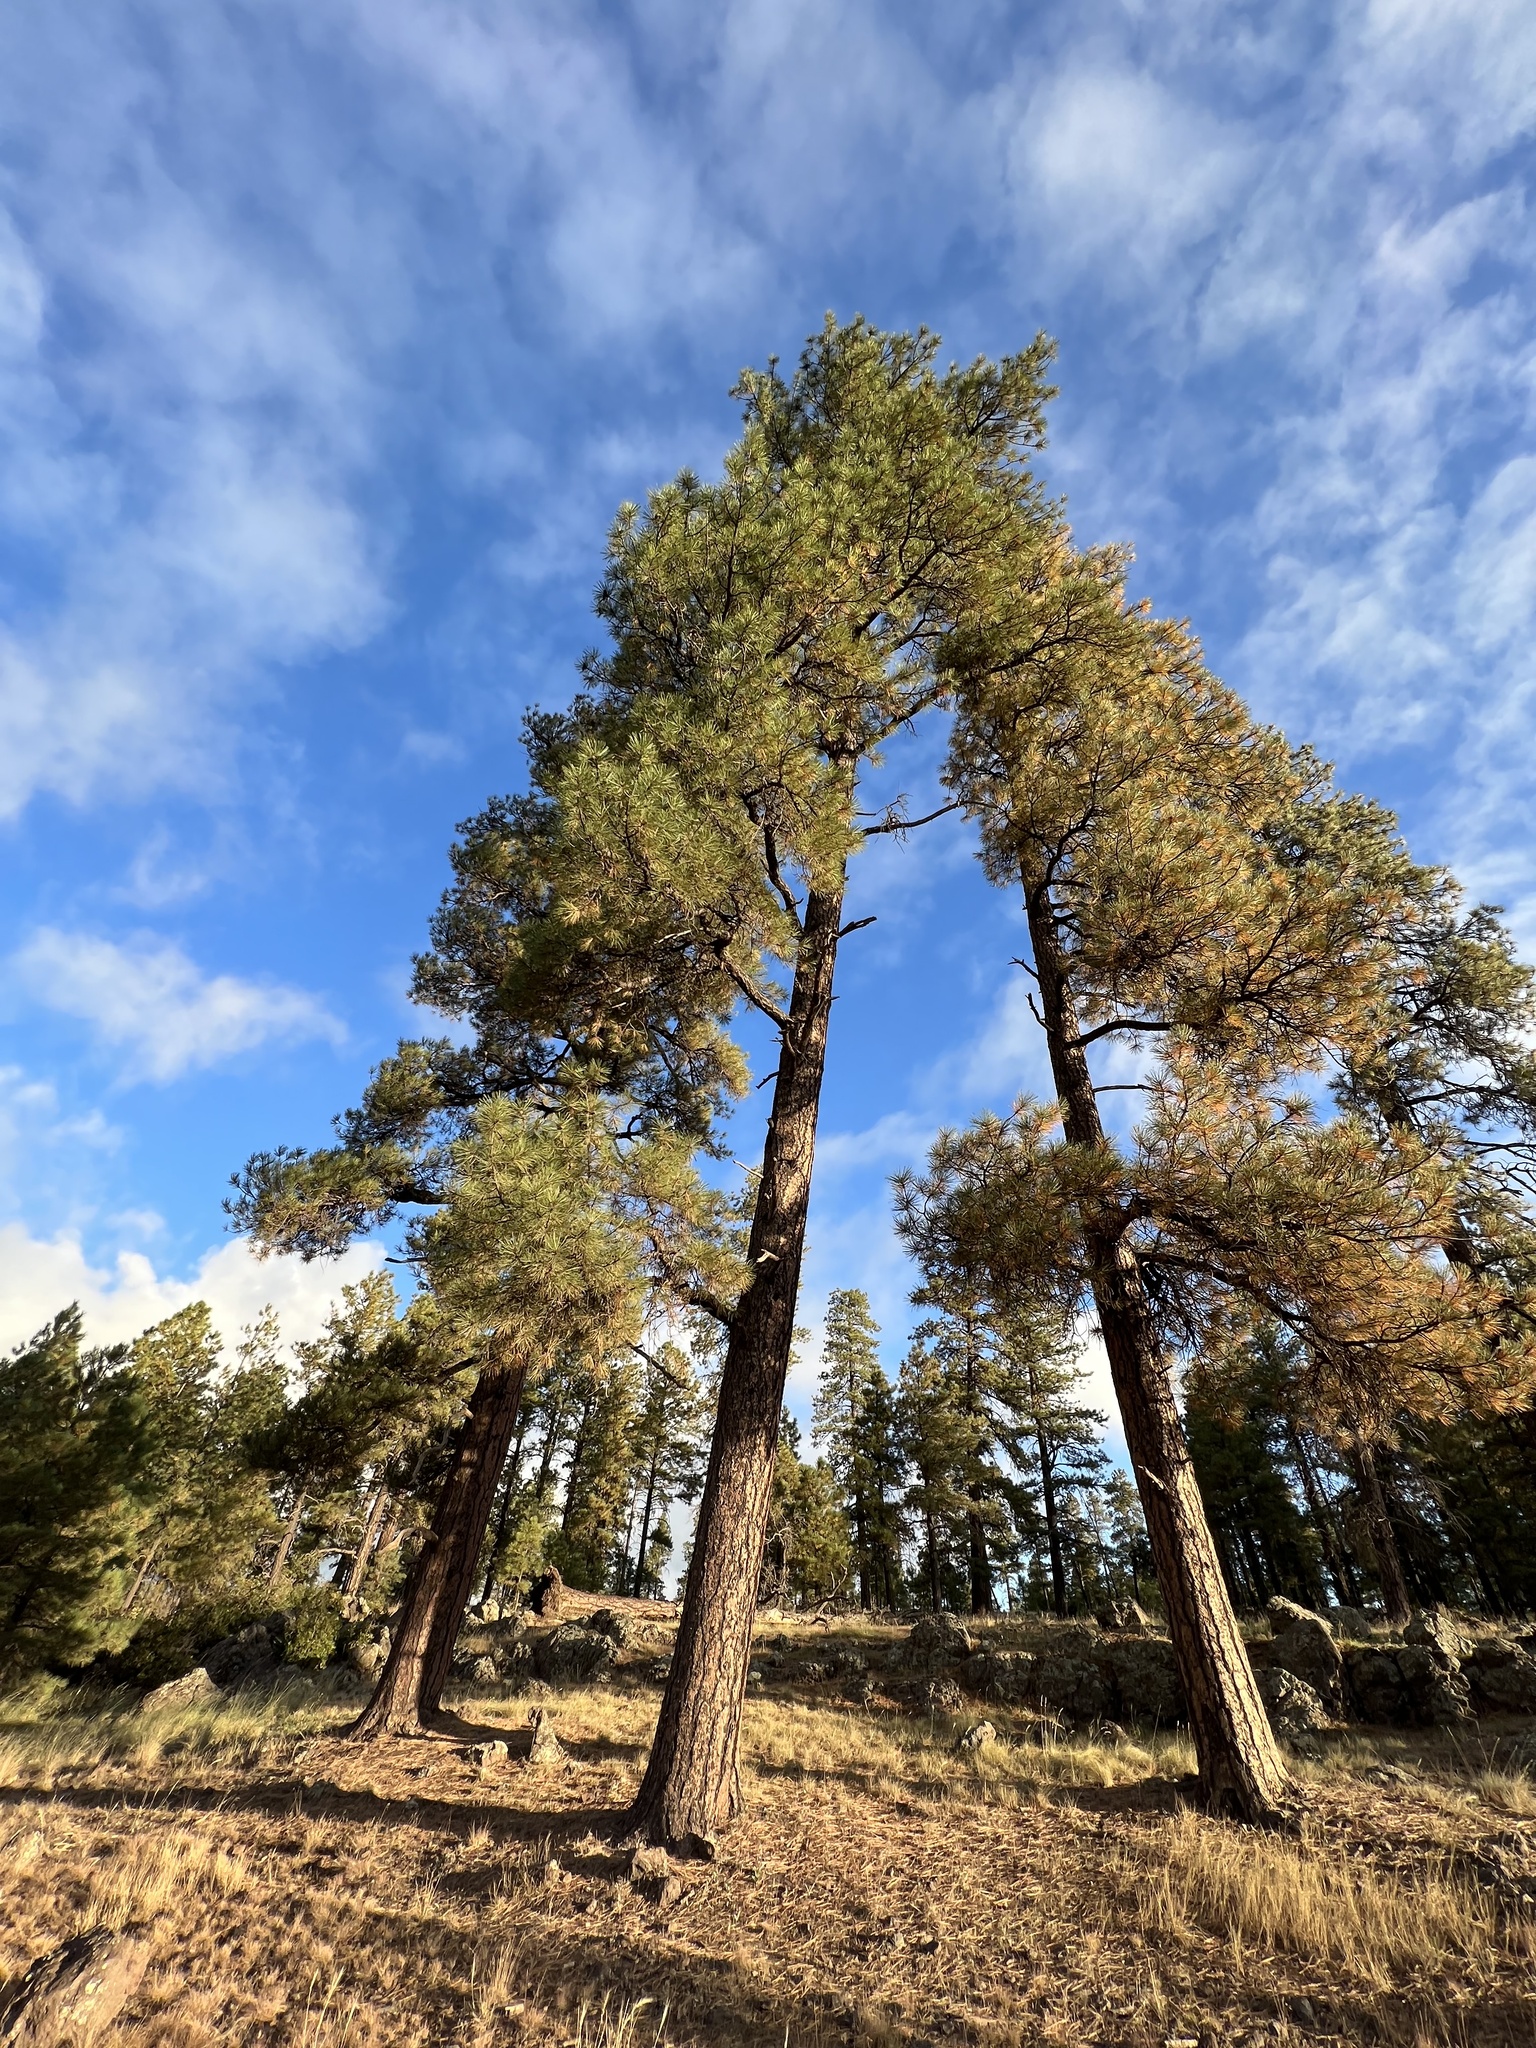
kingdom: Plantae
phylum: Tracheophyta
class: Pinopsida
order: Pinales
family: Pinaceae
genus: Pinus
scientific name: Pinus ponderosa
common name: Western yellow-pine
